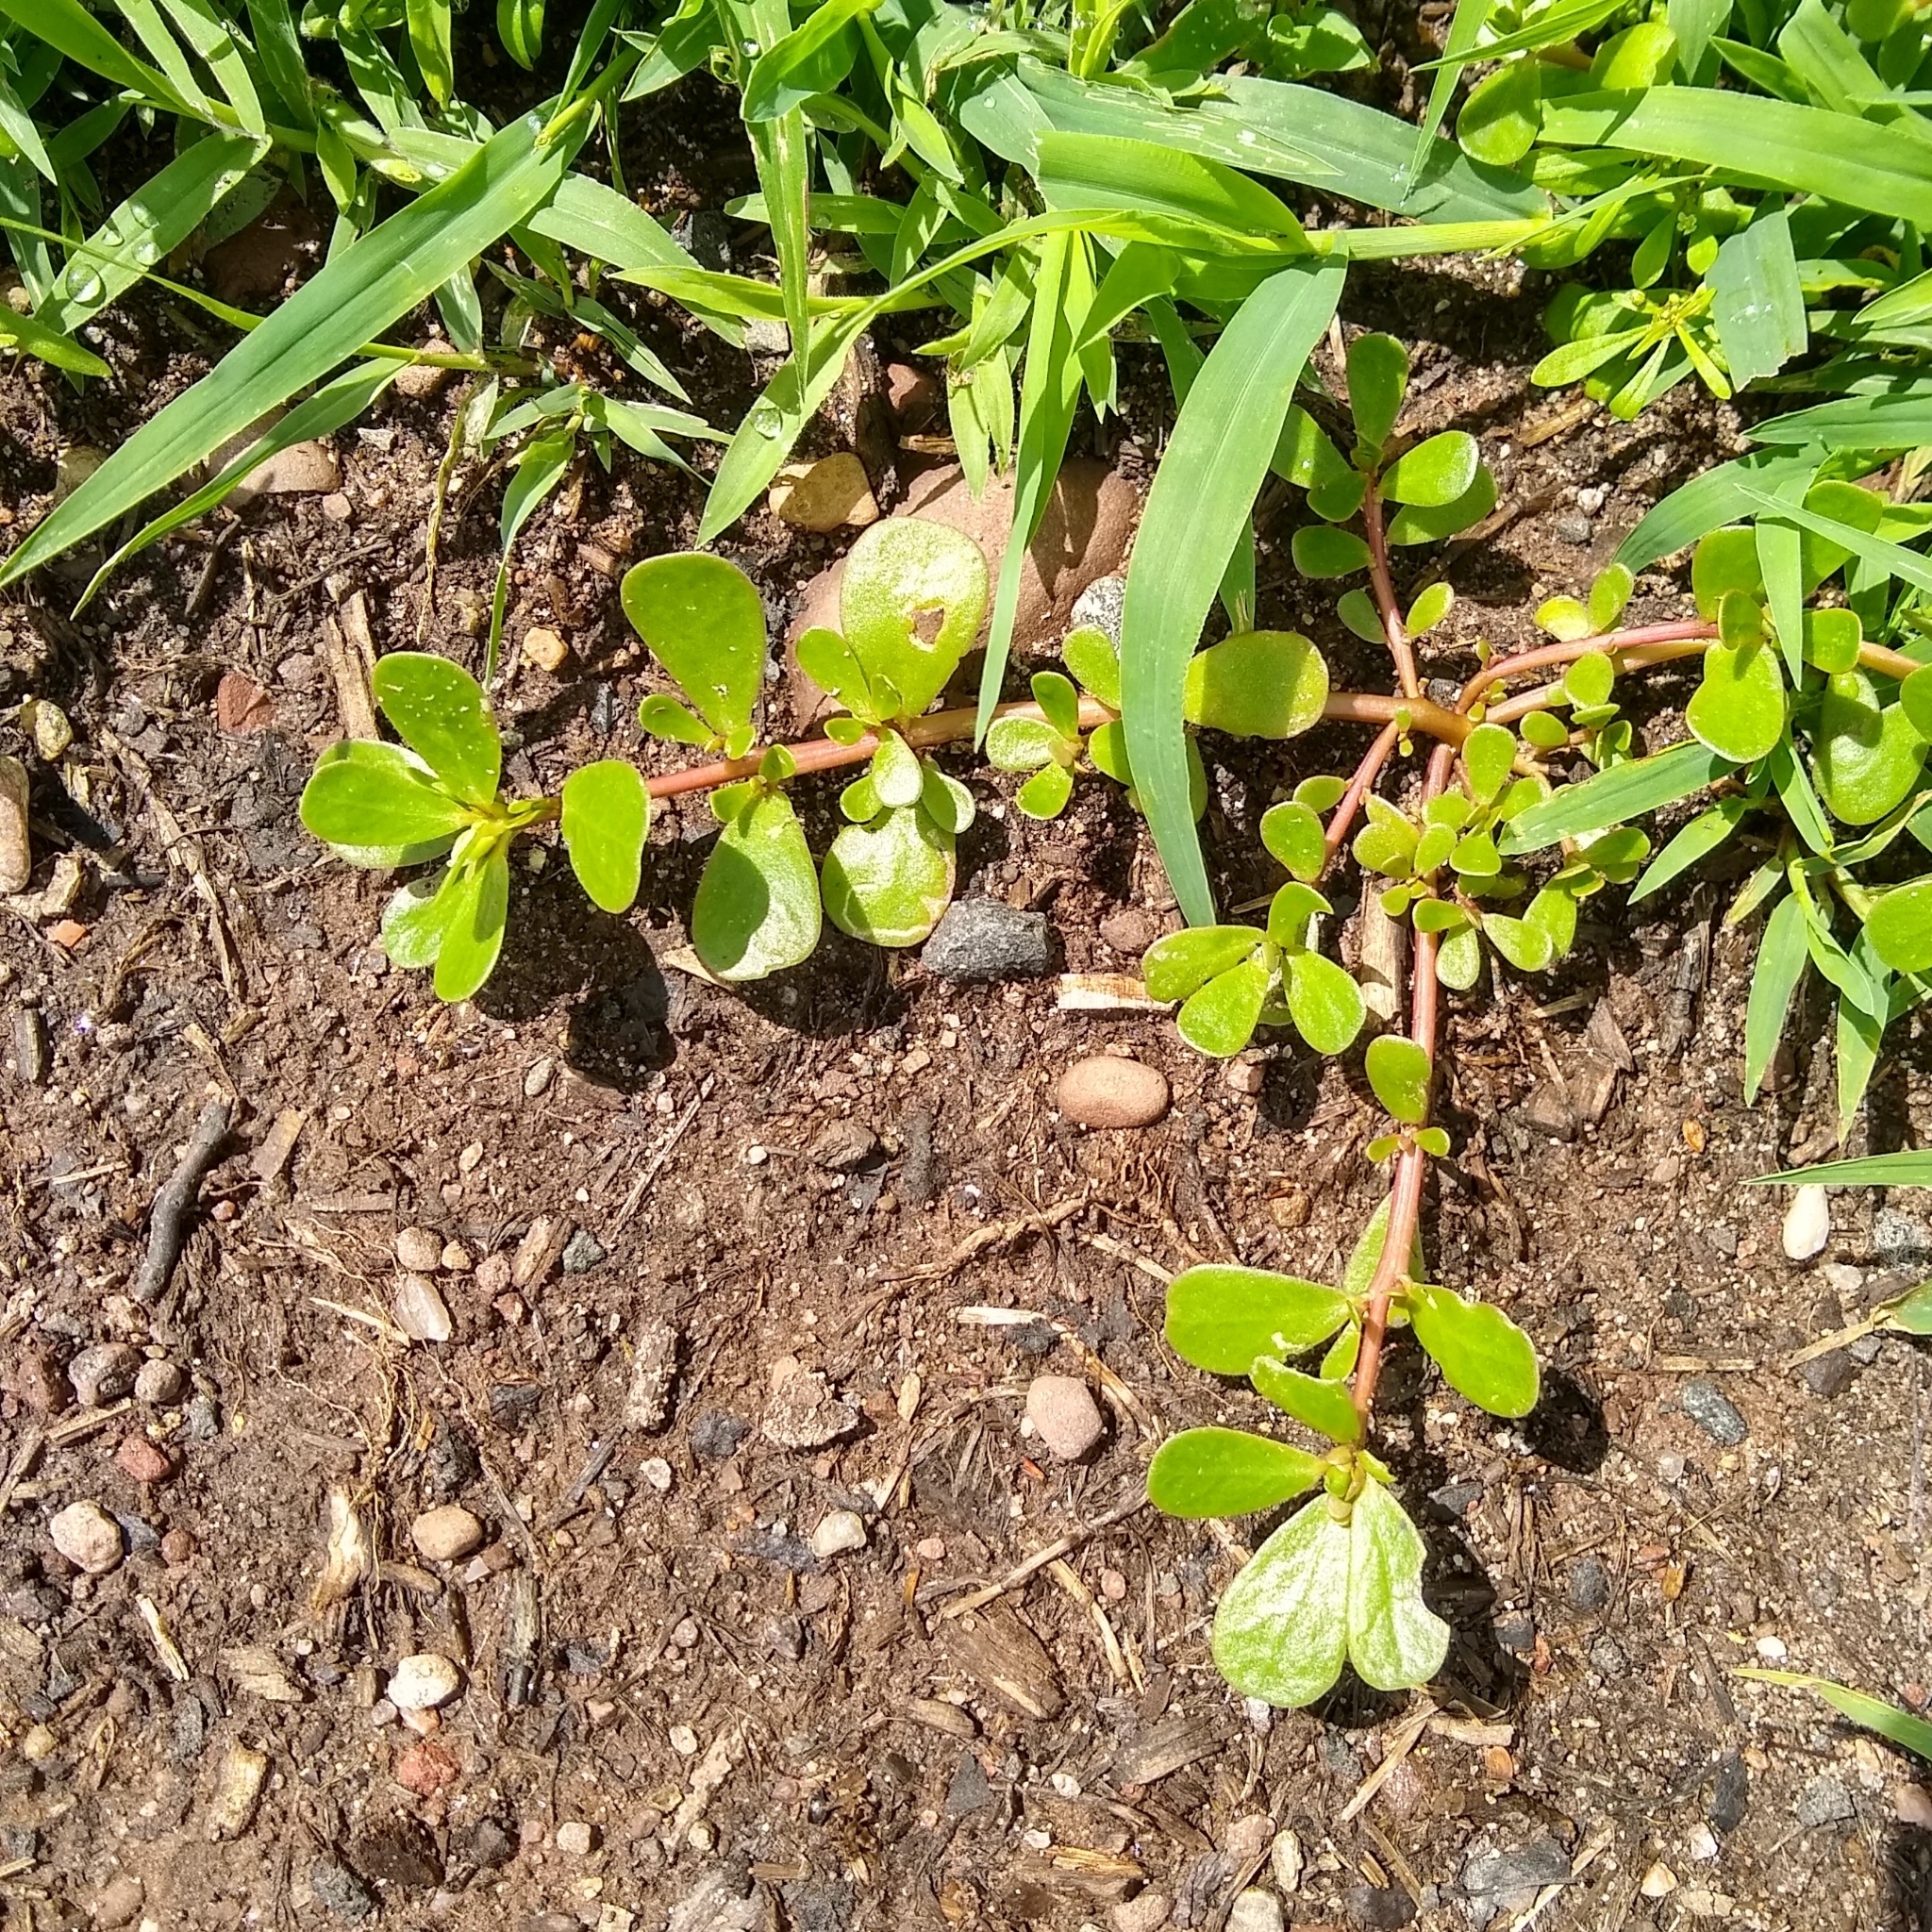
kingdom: Plantae
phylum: Tracheophyta
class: Magnoliopsida
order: Caryophyllales
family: Portulacaceae
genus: Portulaca
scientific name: Portulaca oleracea
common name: Common purslane
